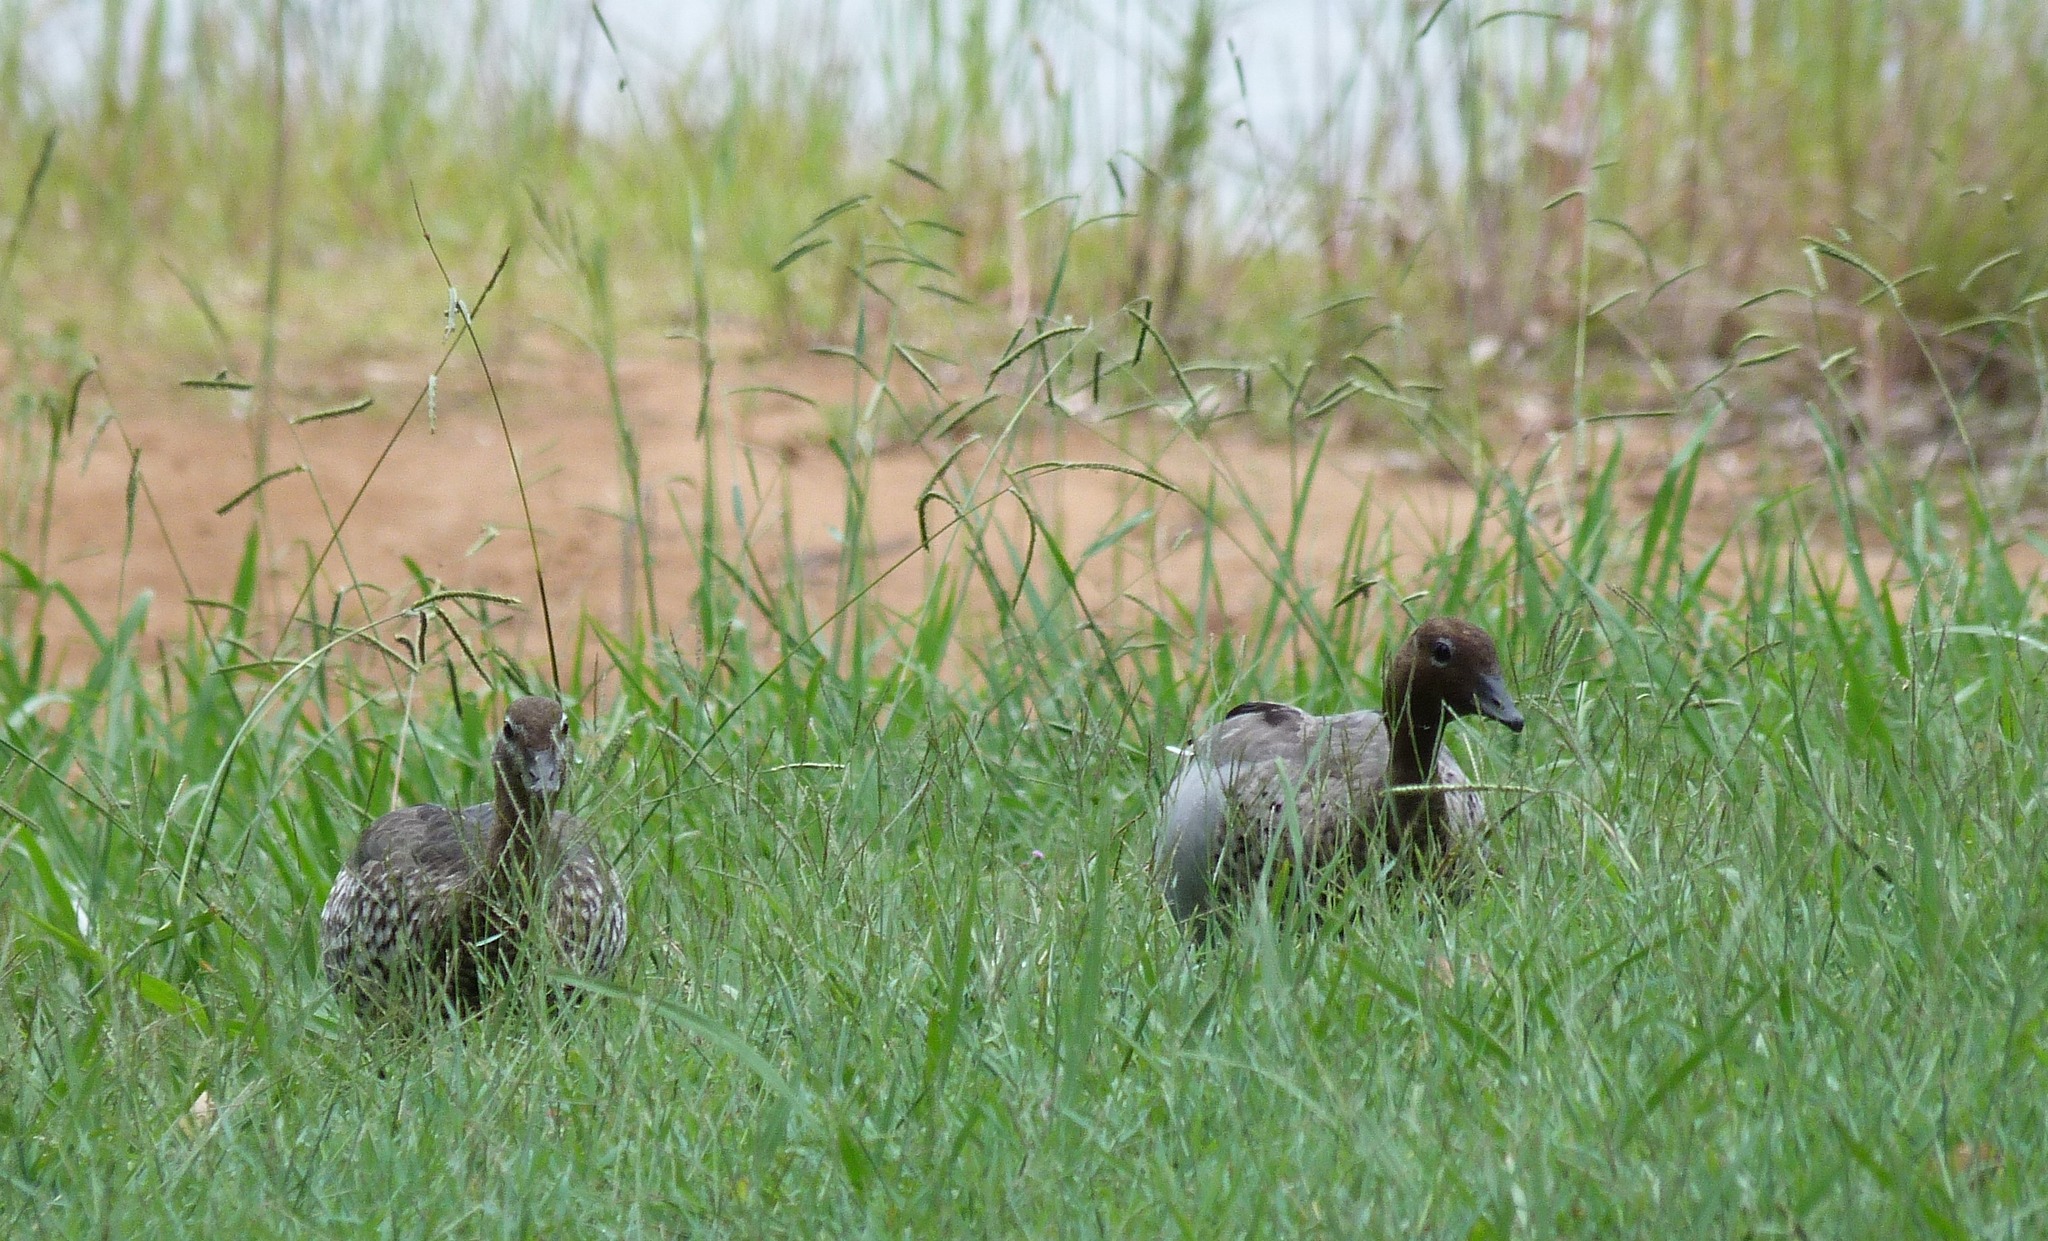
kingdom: Animalia
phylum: Chordata
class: Aves
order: Anseriformes
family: Anatidae
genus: Chenonetta
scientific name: Chenonetta jubata
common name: Maned duck
